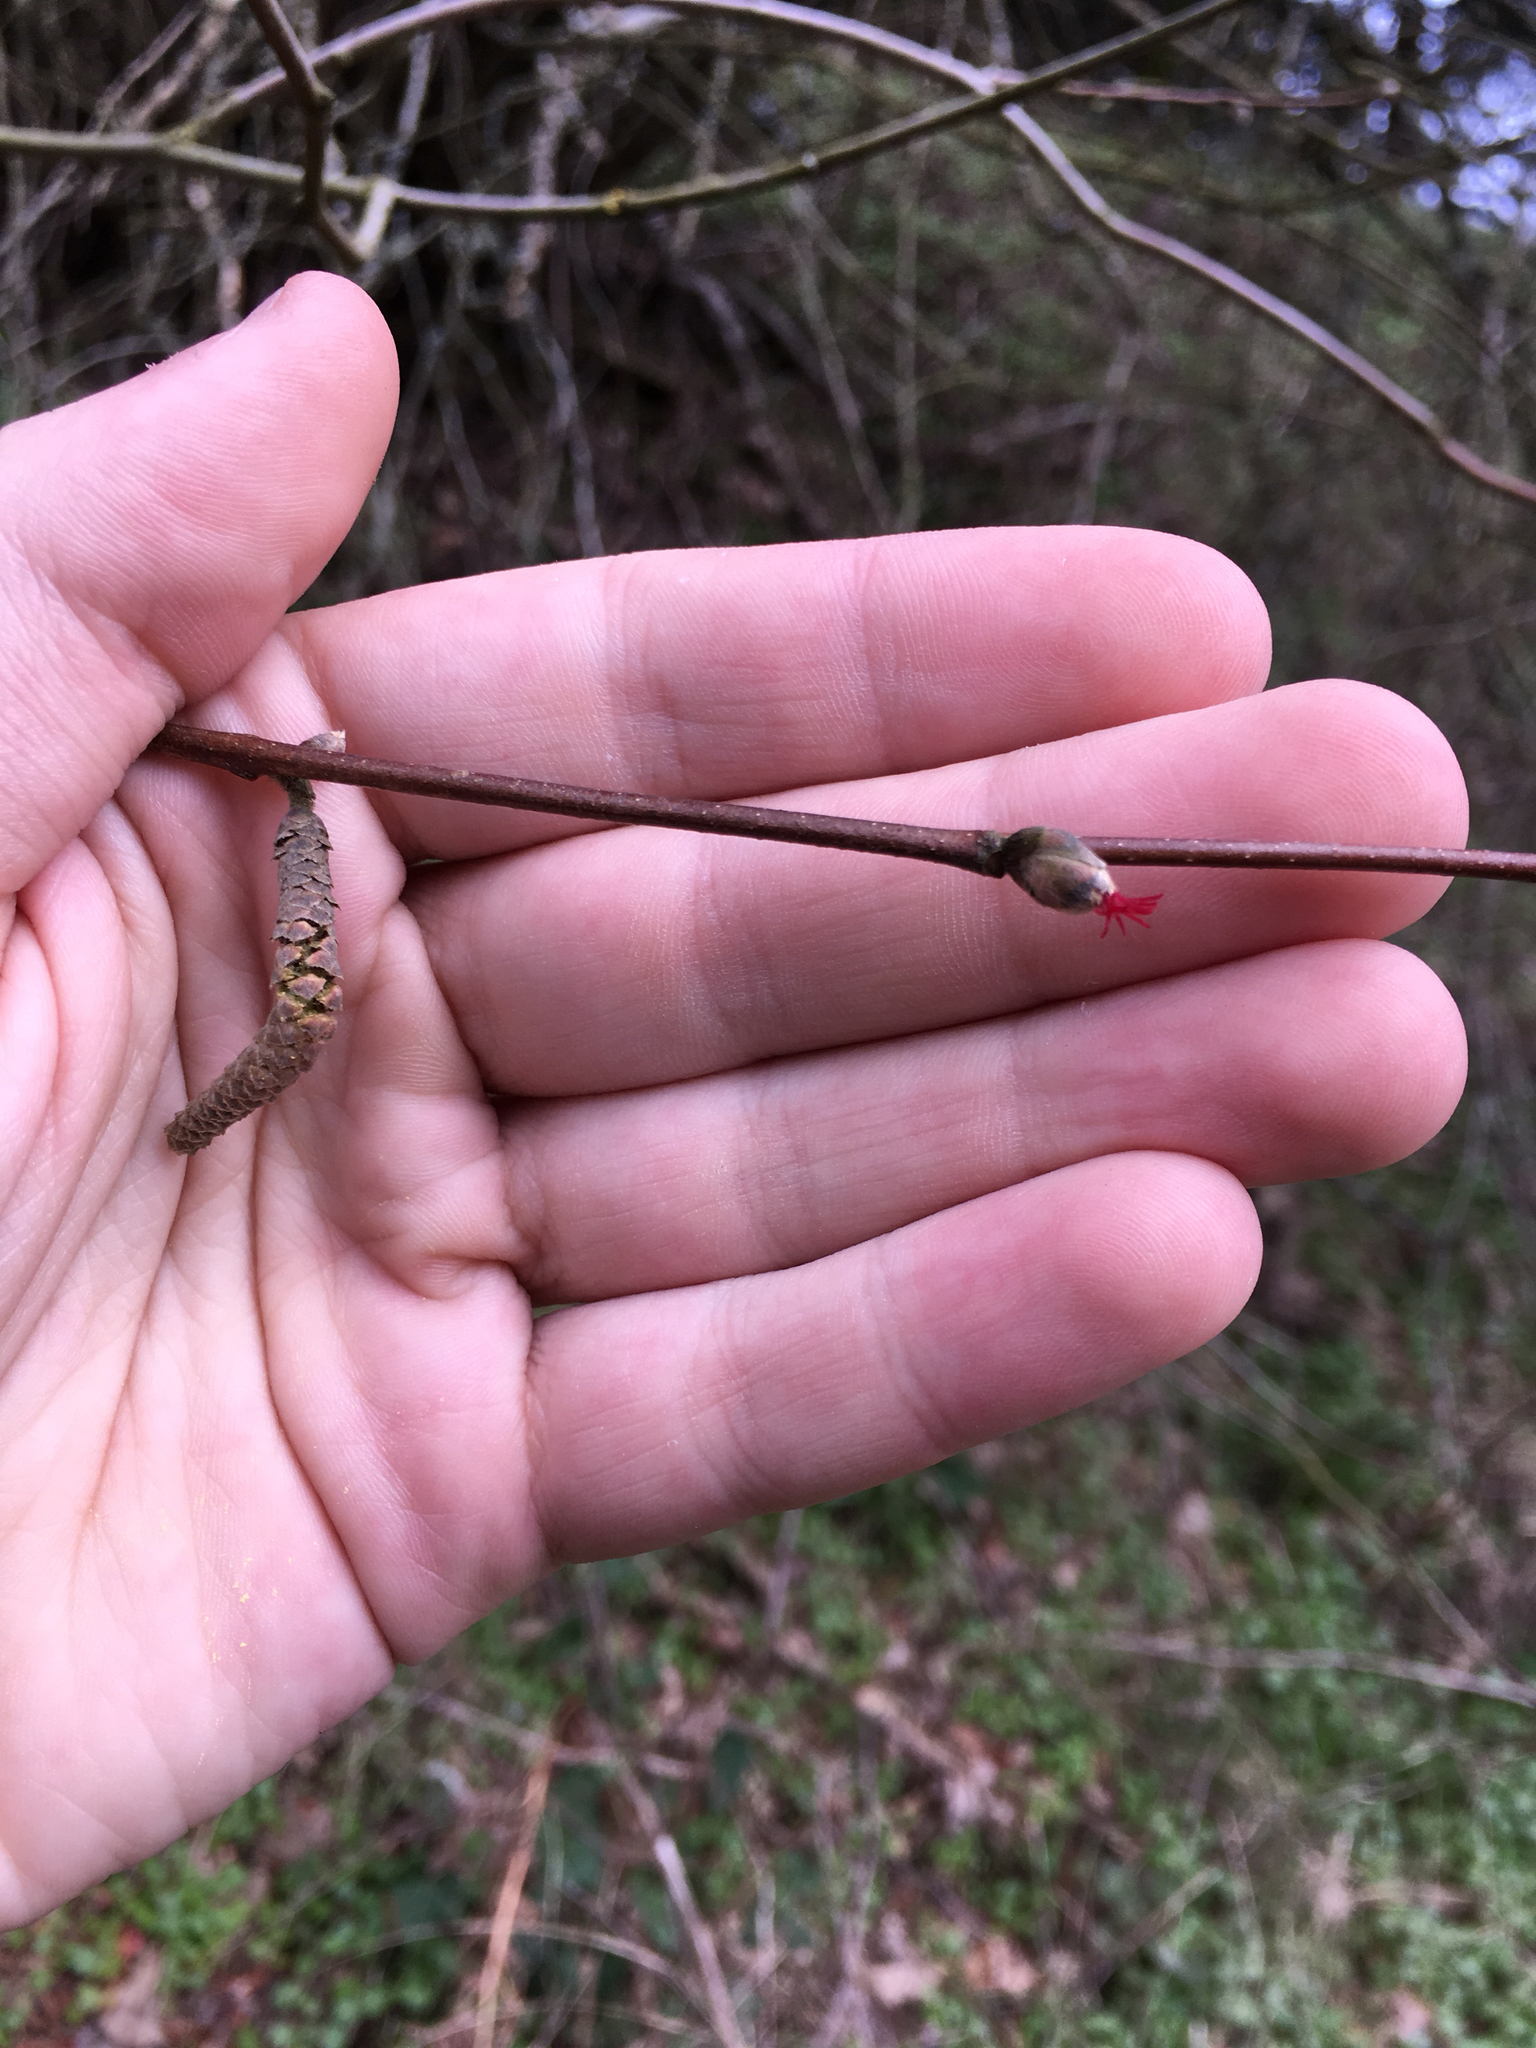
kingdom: Plantae
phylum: Tracheophyta
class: Magnoliopsida
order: Fagales
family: Betulaceae
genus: Corylus
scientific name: Corylus cornuta
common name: Beaked hazel
